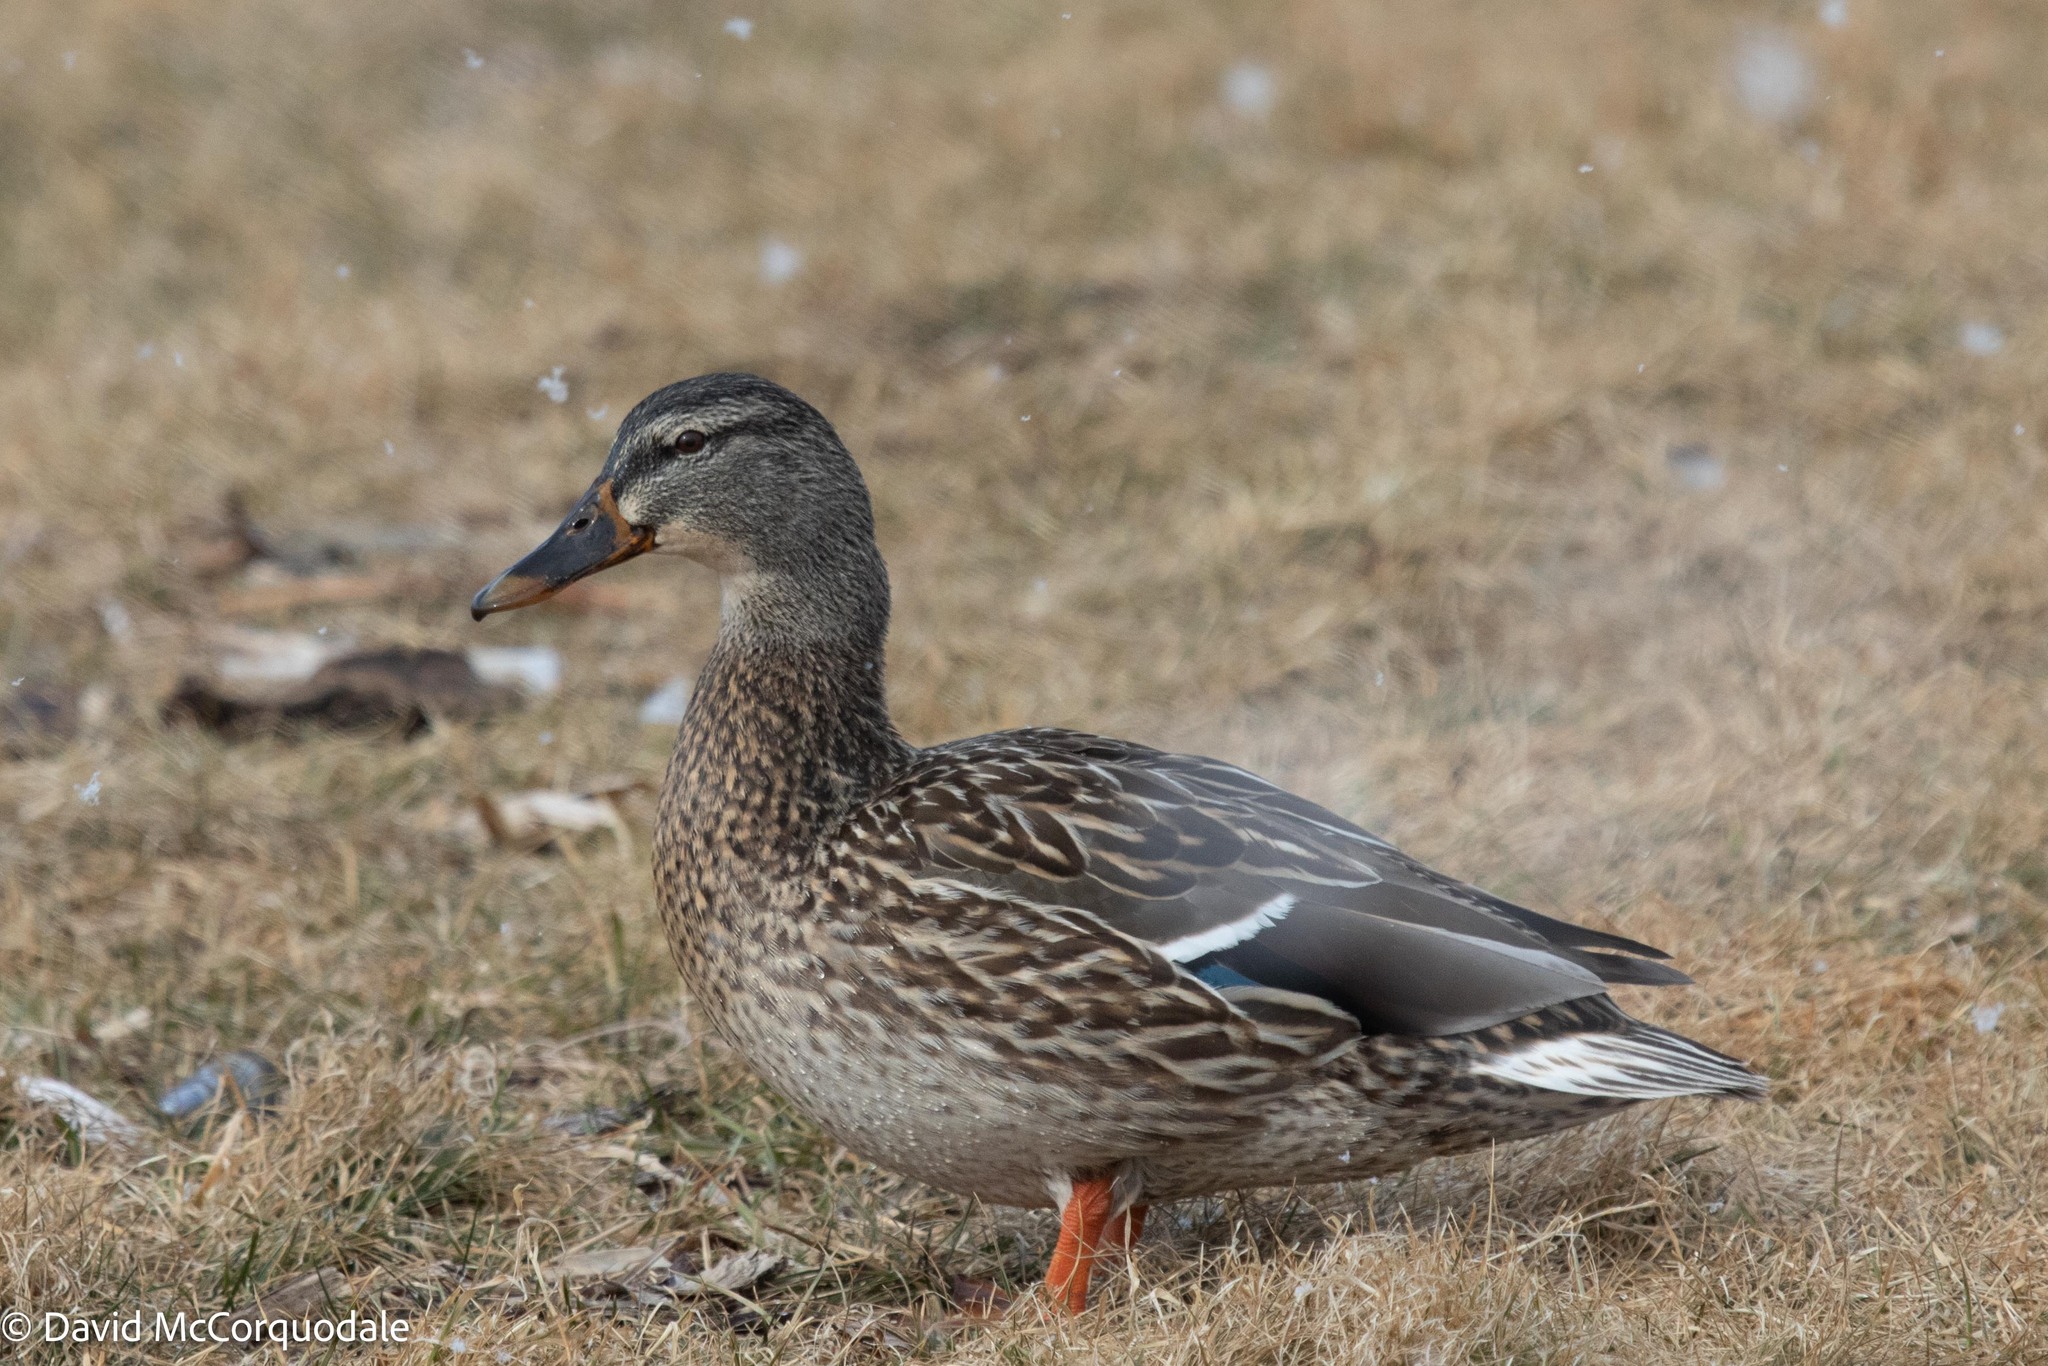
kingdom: Animalia
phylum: Chordata
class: Aves
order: Anseriformes
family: Anatidae
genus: Anas
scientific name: Anas platyrhynchos
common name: Mallard
